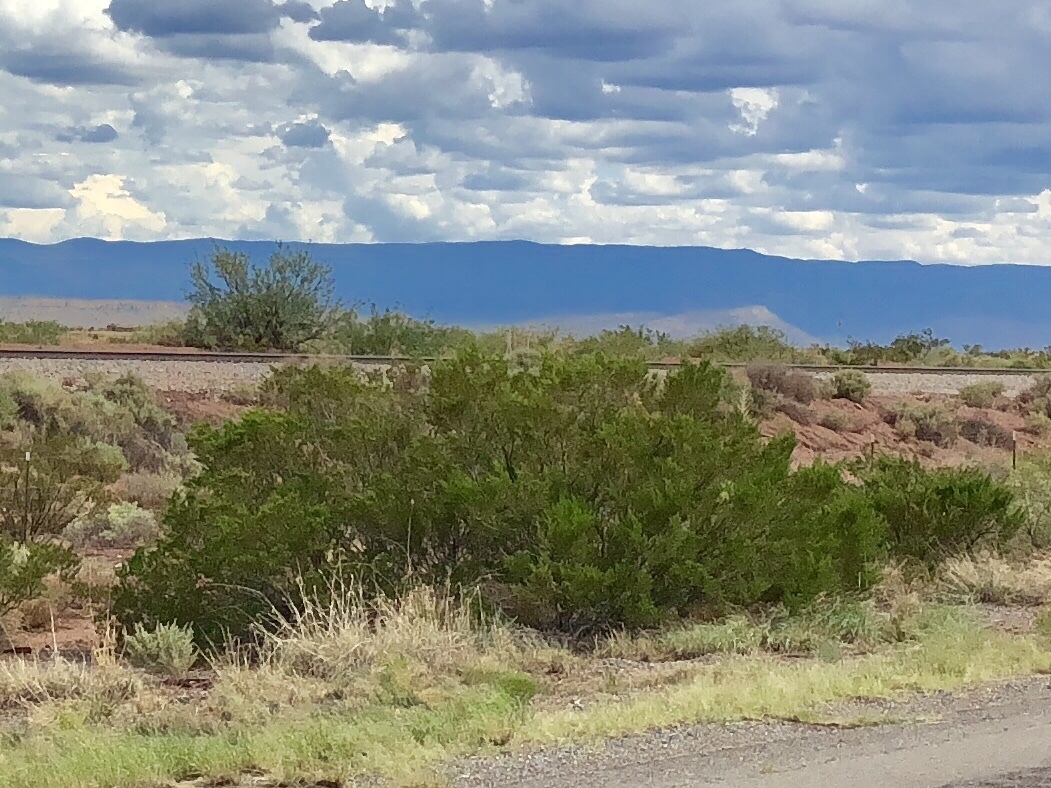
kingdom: Plantae
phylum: Tracheophyta
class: Magnoliopsida
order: Zygophyllales
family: Zygophyllaceae
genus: Larrea
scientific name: Larrea tridentata
